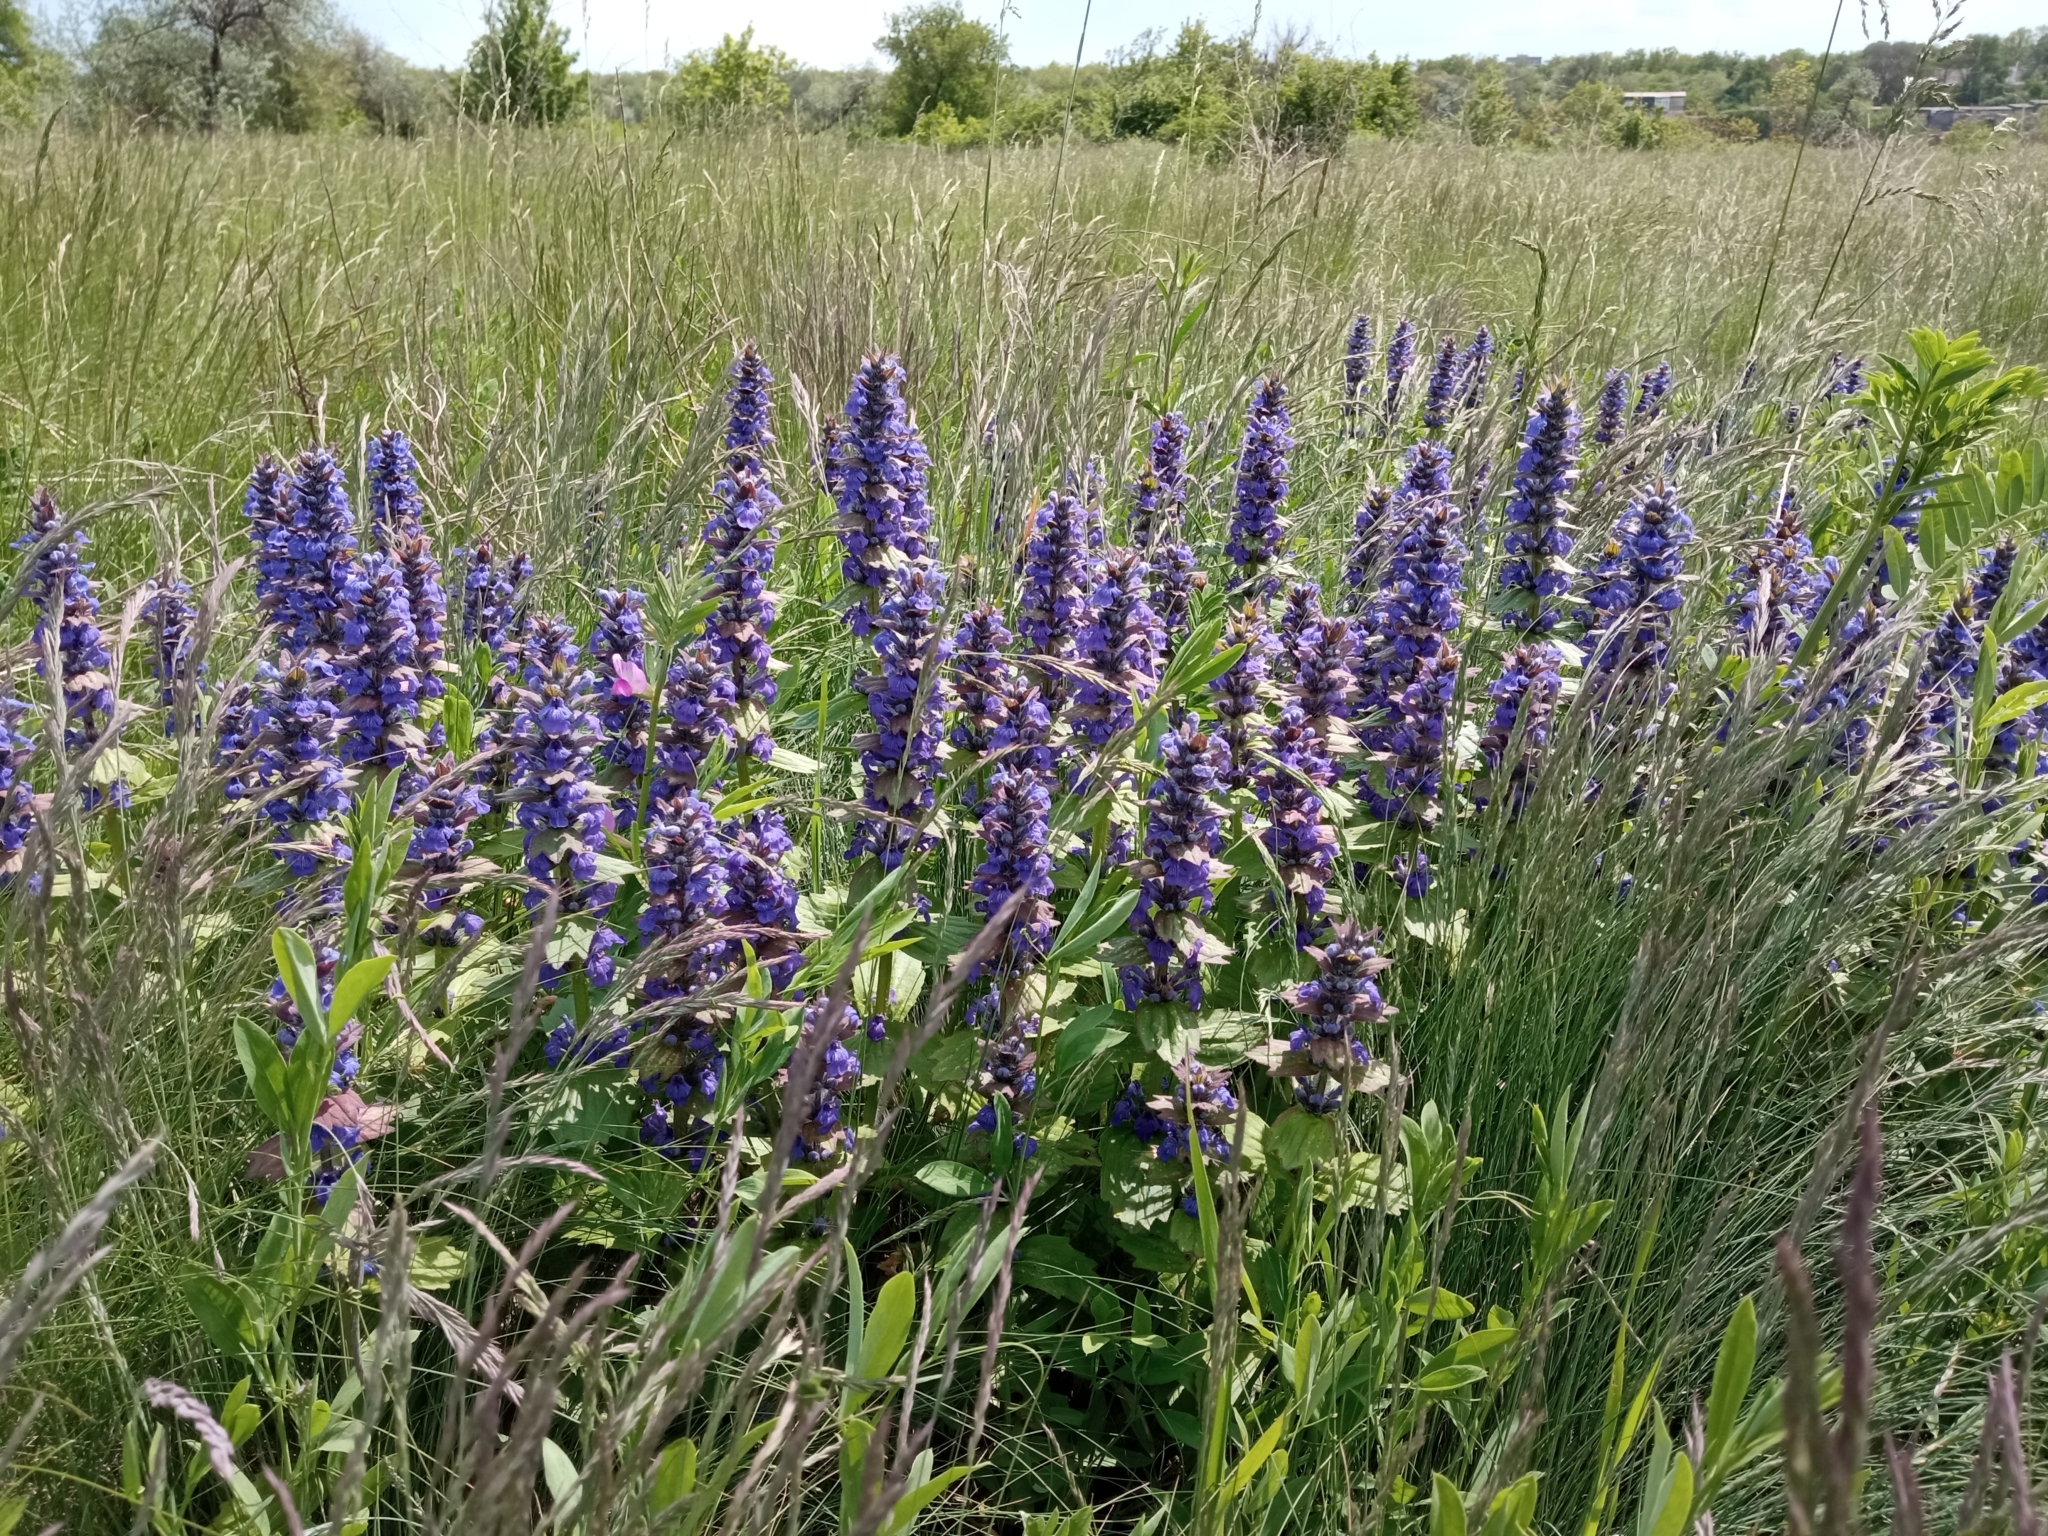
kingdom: Plantae
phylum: Tracheophyta
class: Magnoliopsida
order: Lamiales
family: Lamiaceae
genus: Ajuga
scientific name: Ajuga genevensis
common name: Blue bugle
